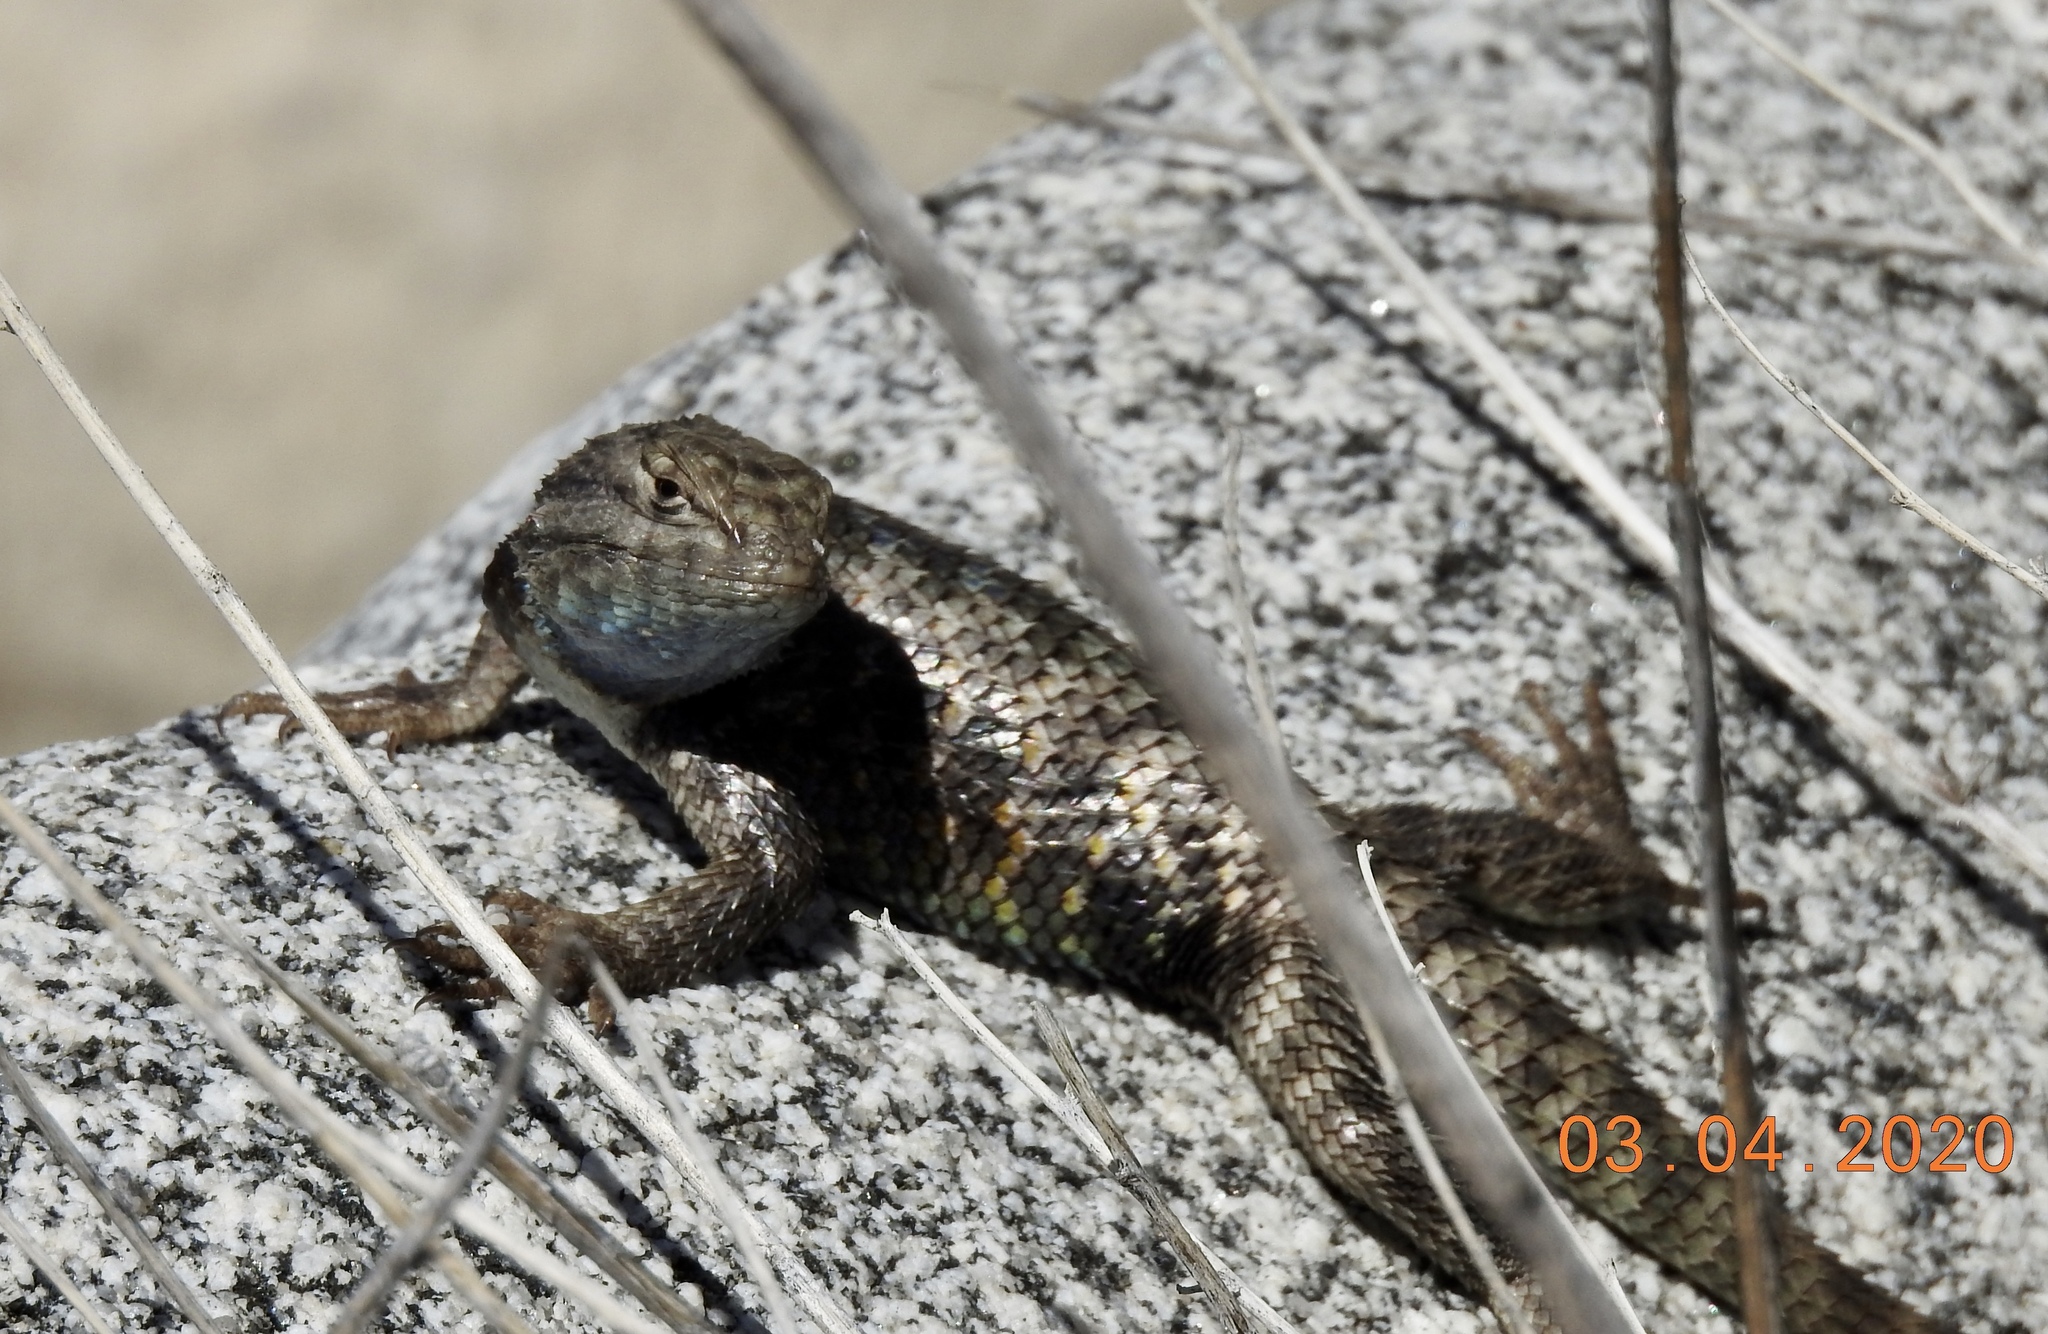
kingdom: Animalia
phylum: Chordata
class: Squamata
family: Phrynosomatidae
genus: Sceloporus
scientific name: Sceloporus magister
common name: Desert spiny lizard
